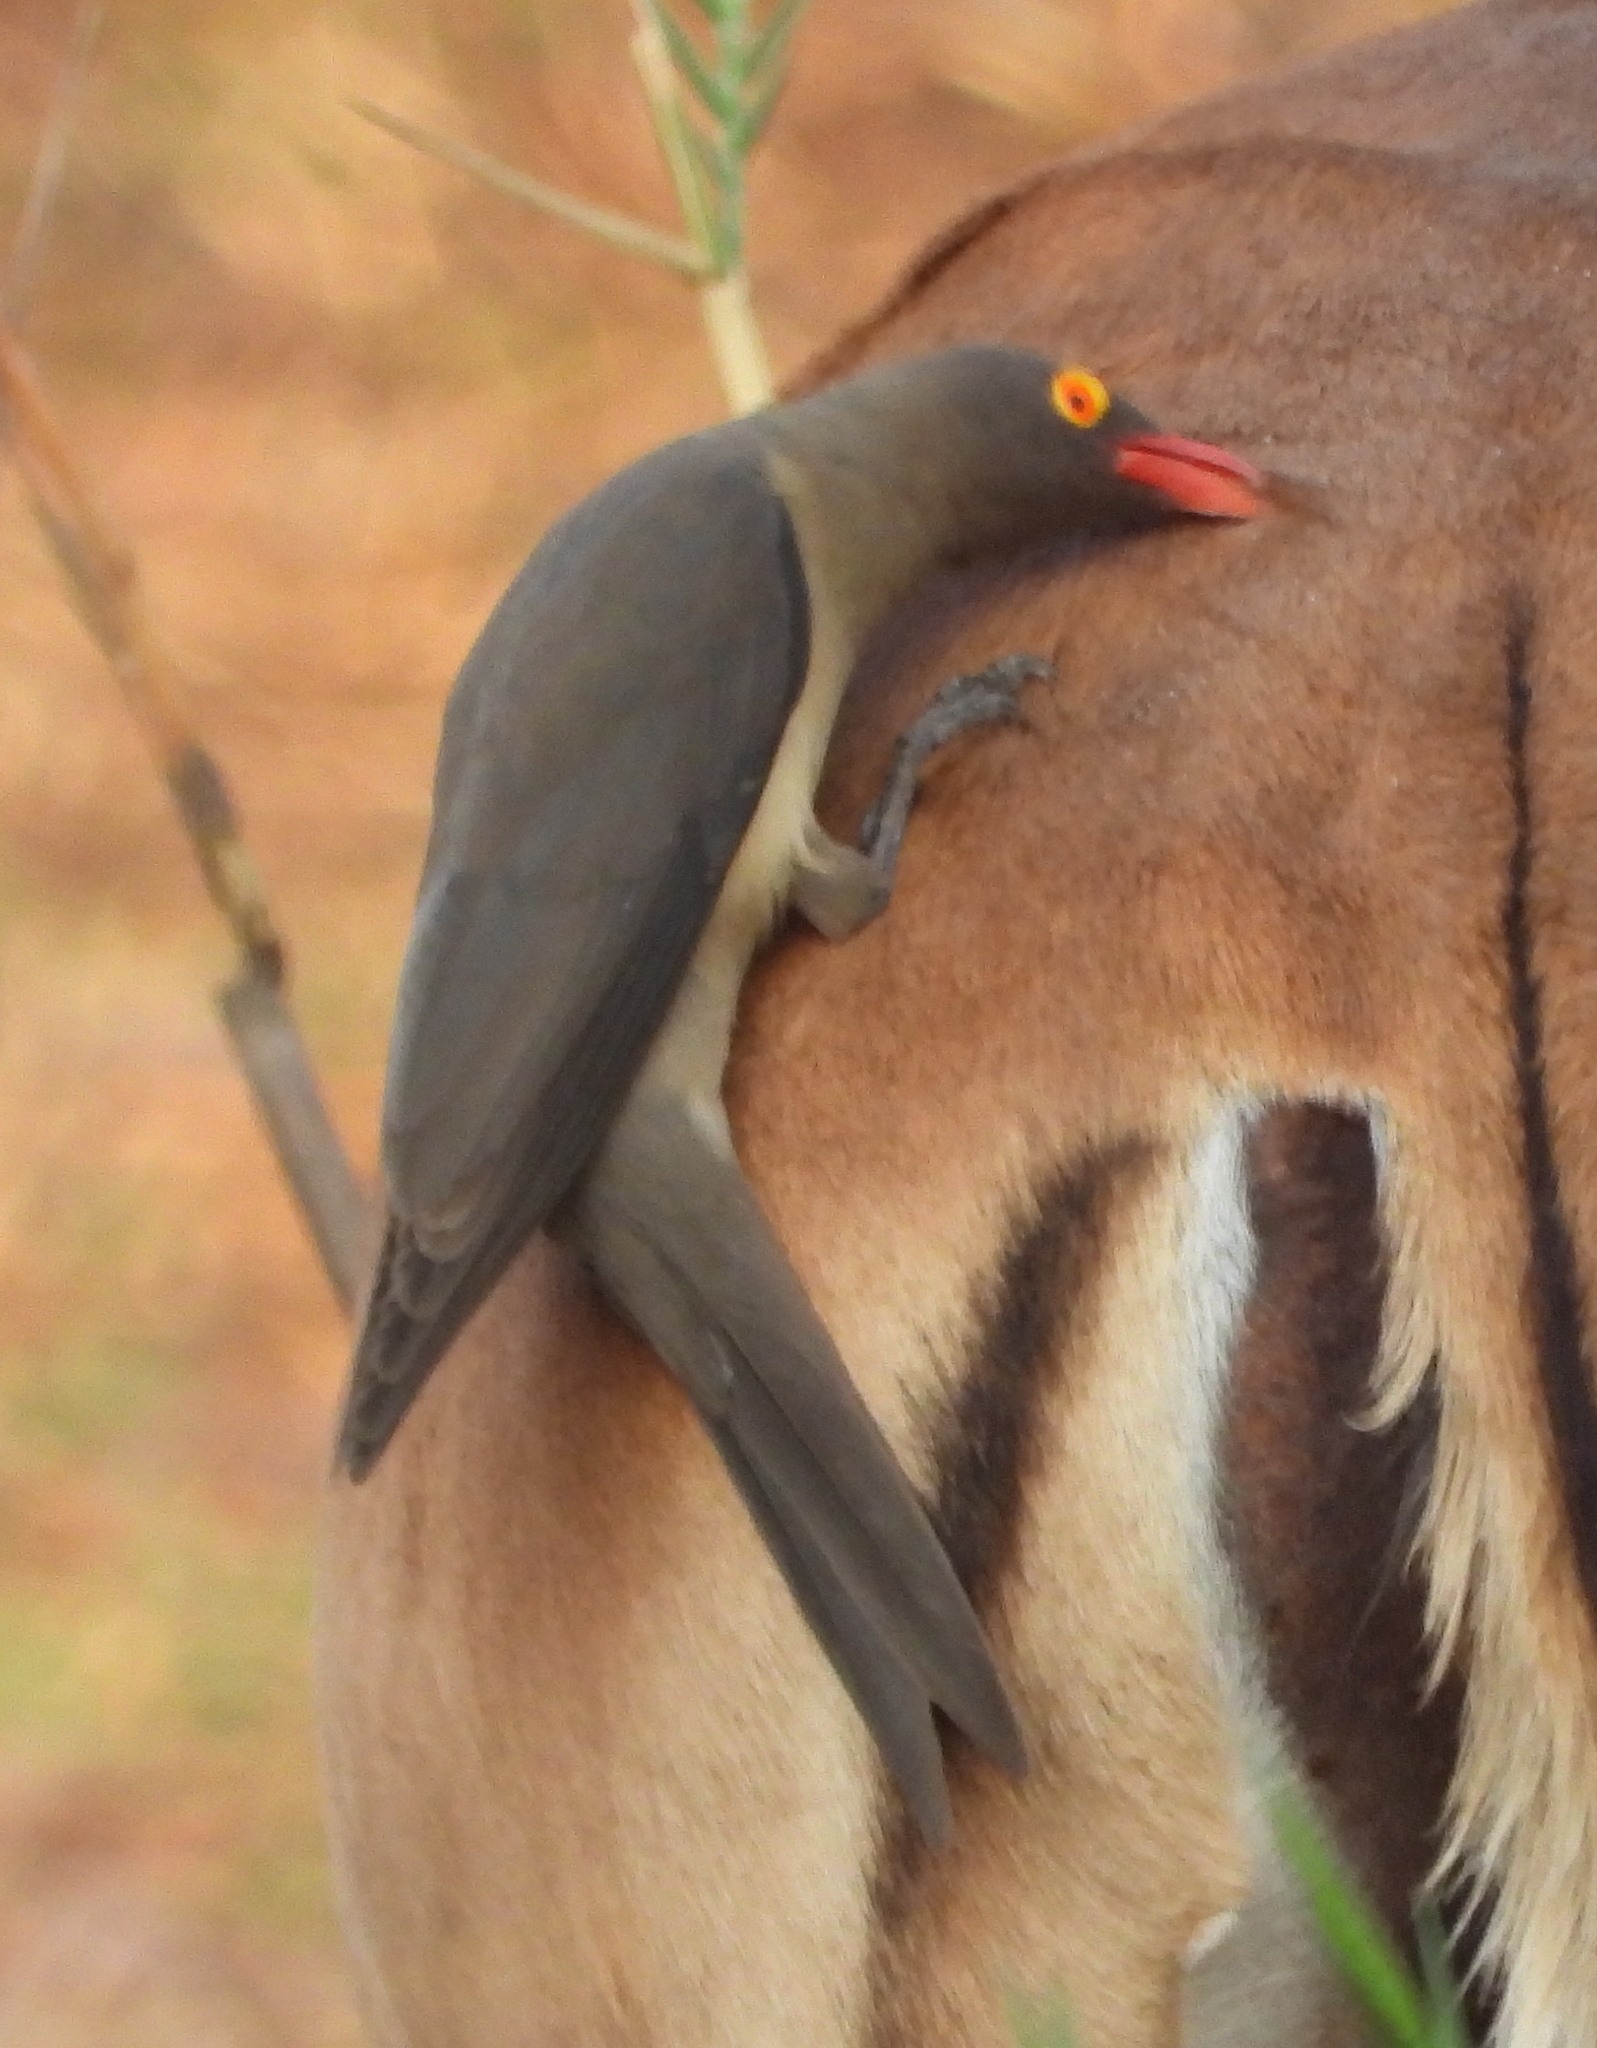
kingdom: Animalia
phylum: Chordata
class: Aves
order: Passeriformes
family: Buphagidae
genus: Buphagus
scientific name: Buphagus erythrorhynchus
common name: Red-billed oxpecker
